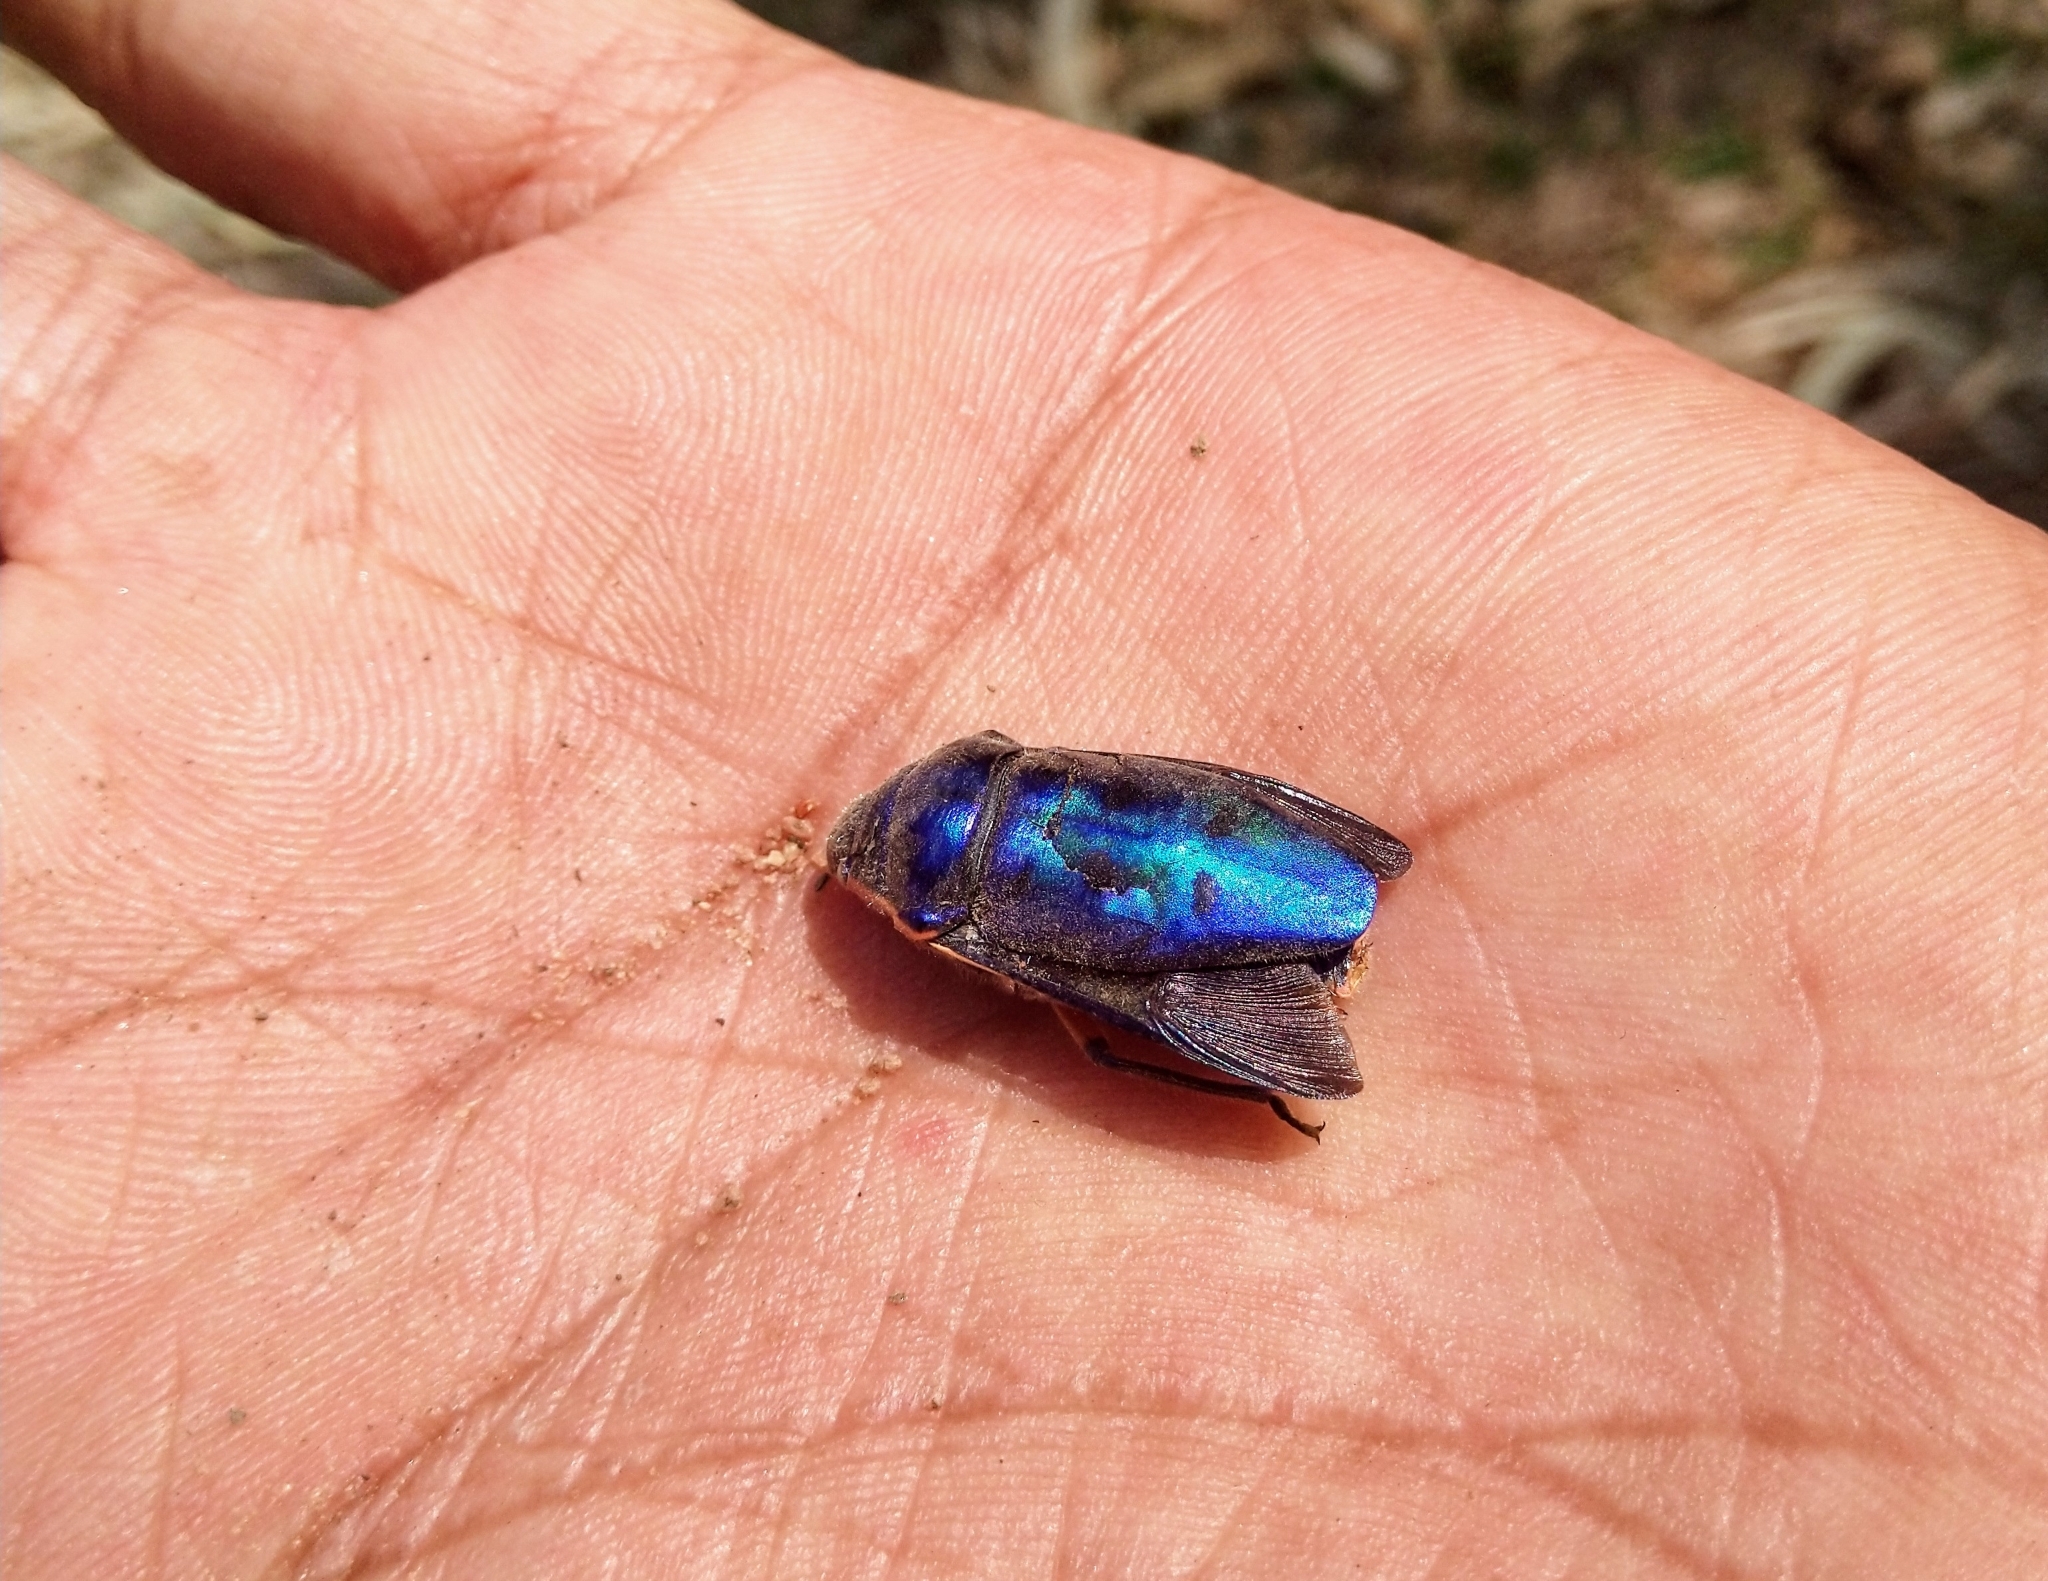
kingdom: Animalia
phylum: Arthropoda
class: Insecta
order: Hemiptera
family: Scutelleridae
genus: Scutellera
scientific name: Scutellera perplexa
